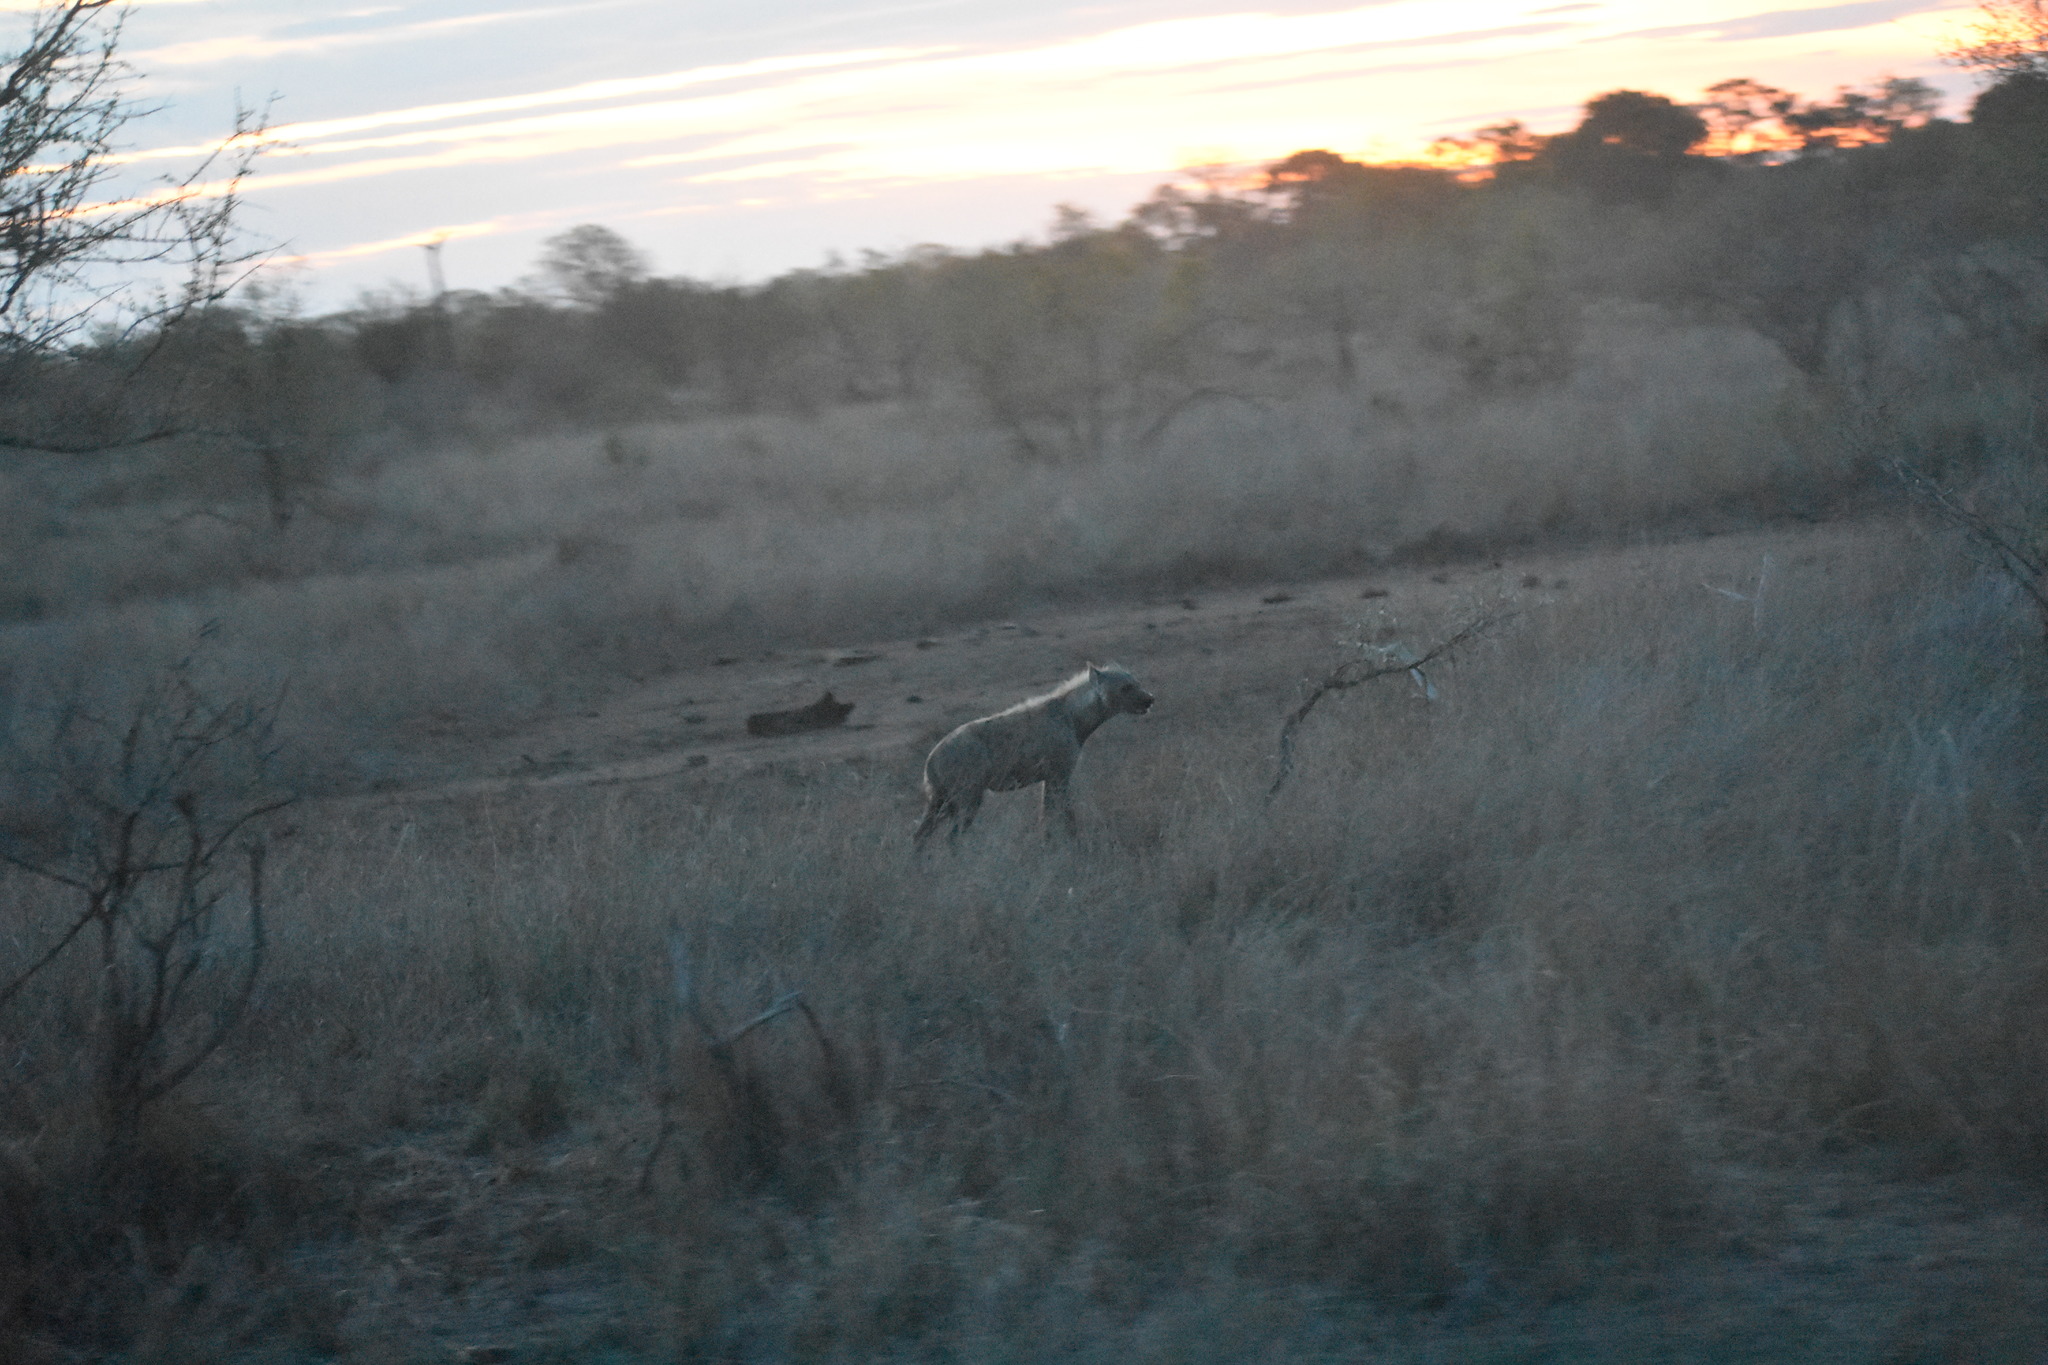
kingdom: Animalia
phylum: Chordata
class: Mammalia
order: Carnivora
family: Hyaenidae
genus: Crocuta
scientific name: Crocuta crocuta
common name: Spotted hyaena
